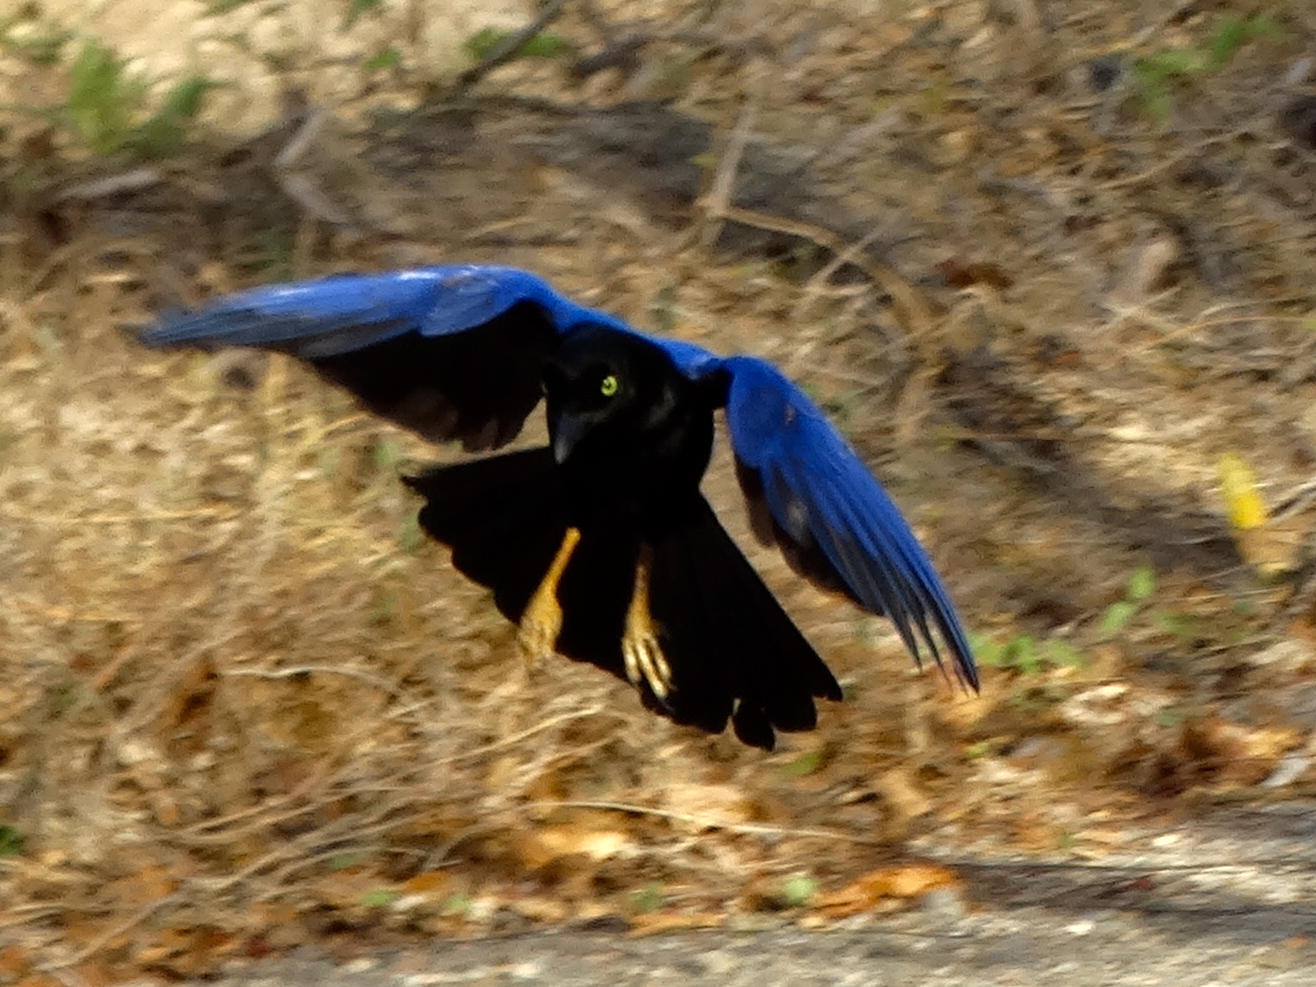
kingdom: Animalia
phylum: Chordata
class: Aves
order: Passeriformes
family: Corvidae
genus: Cyanocorax
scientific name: Cyanocorax beecheii
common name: Purplish-backed jay
